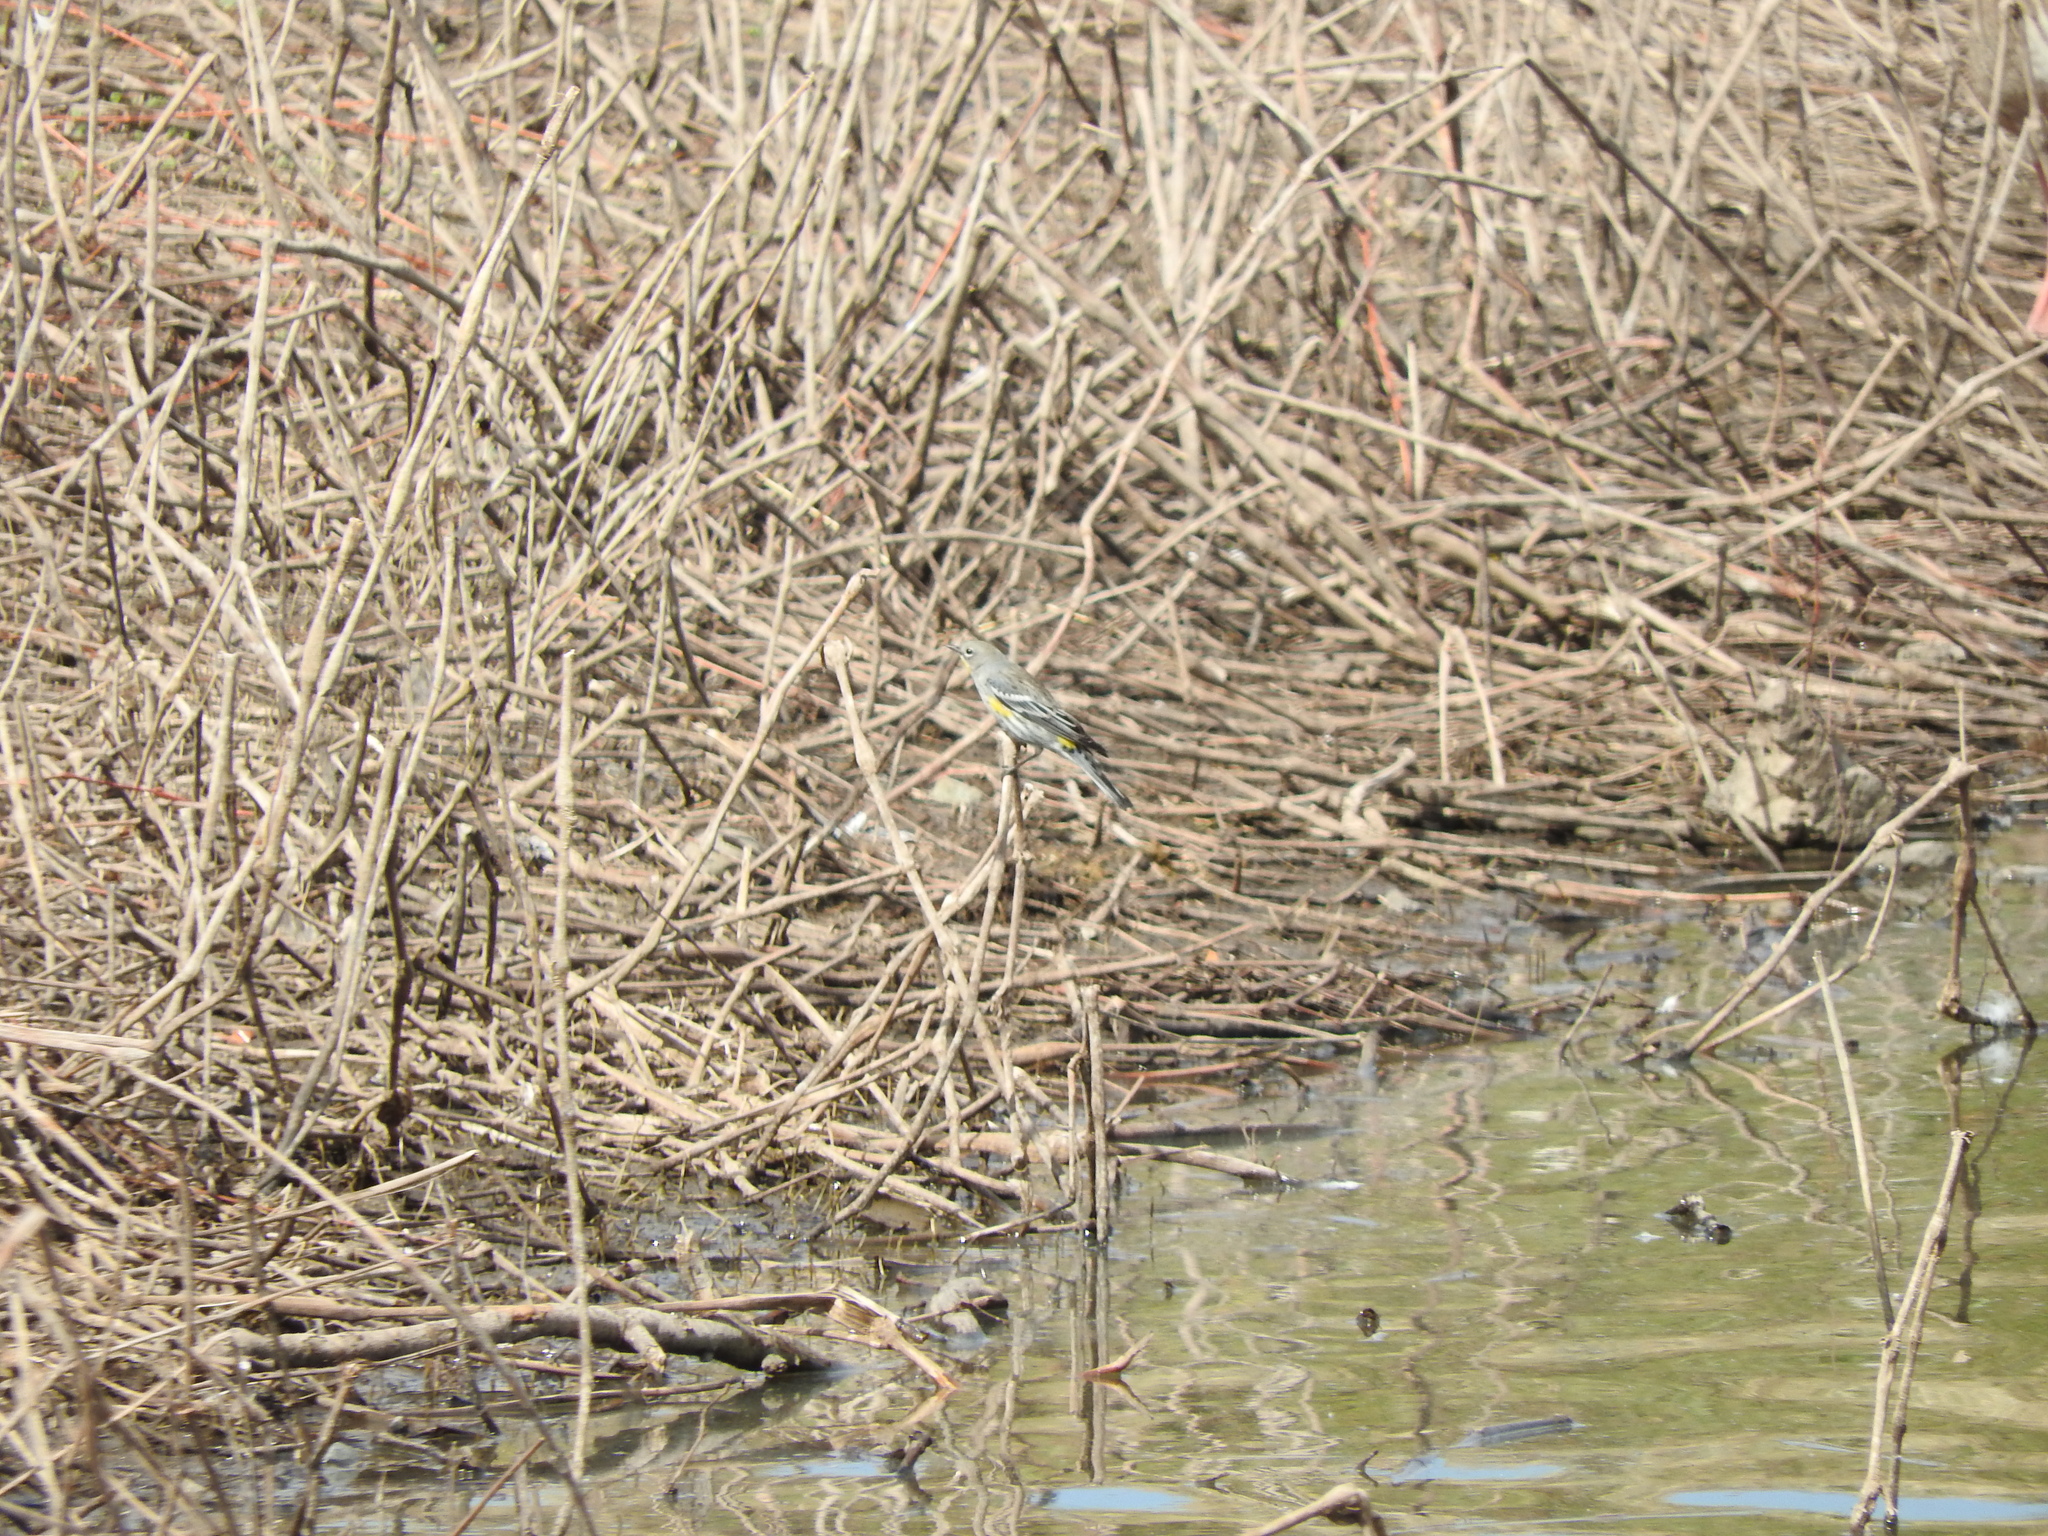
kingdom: Animalia
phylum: Chordata
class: Aves
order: Passeriformes
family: Parulidae
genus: Setophaga
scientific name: Setophaga coronata
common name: Myrtle warbler
